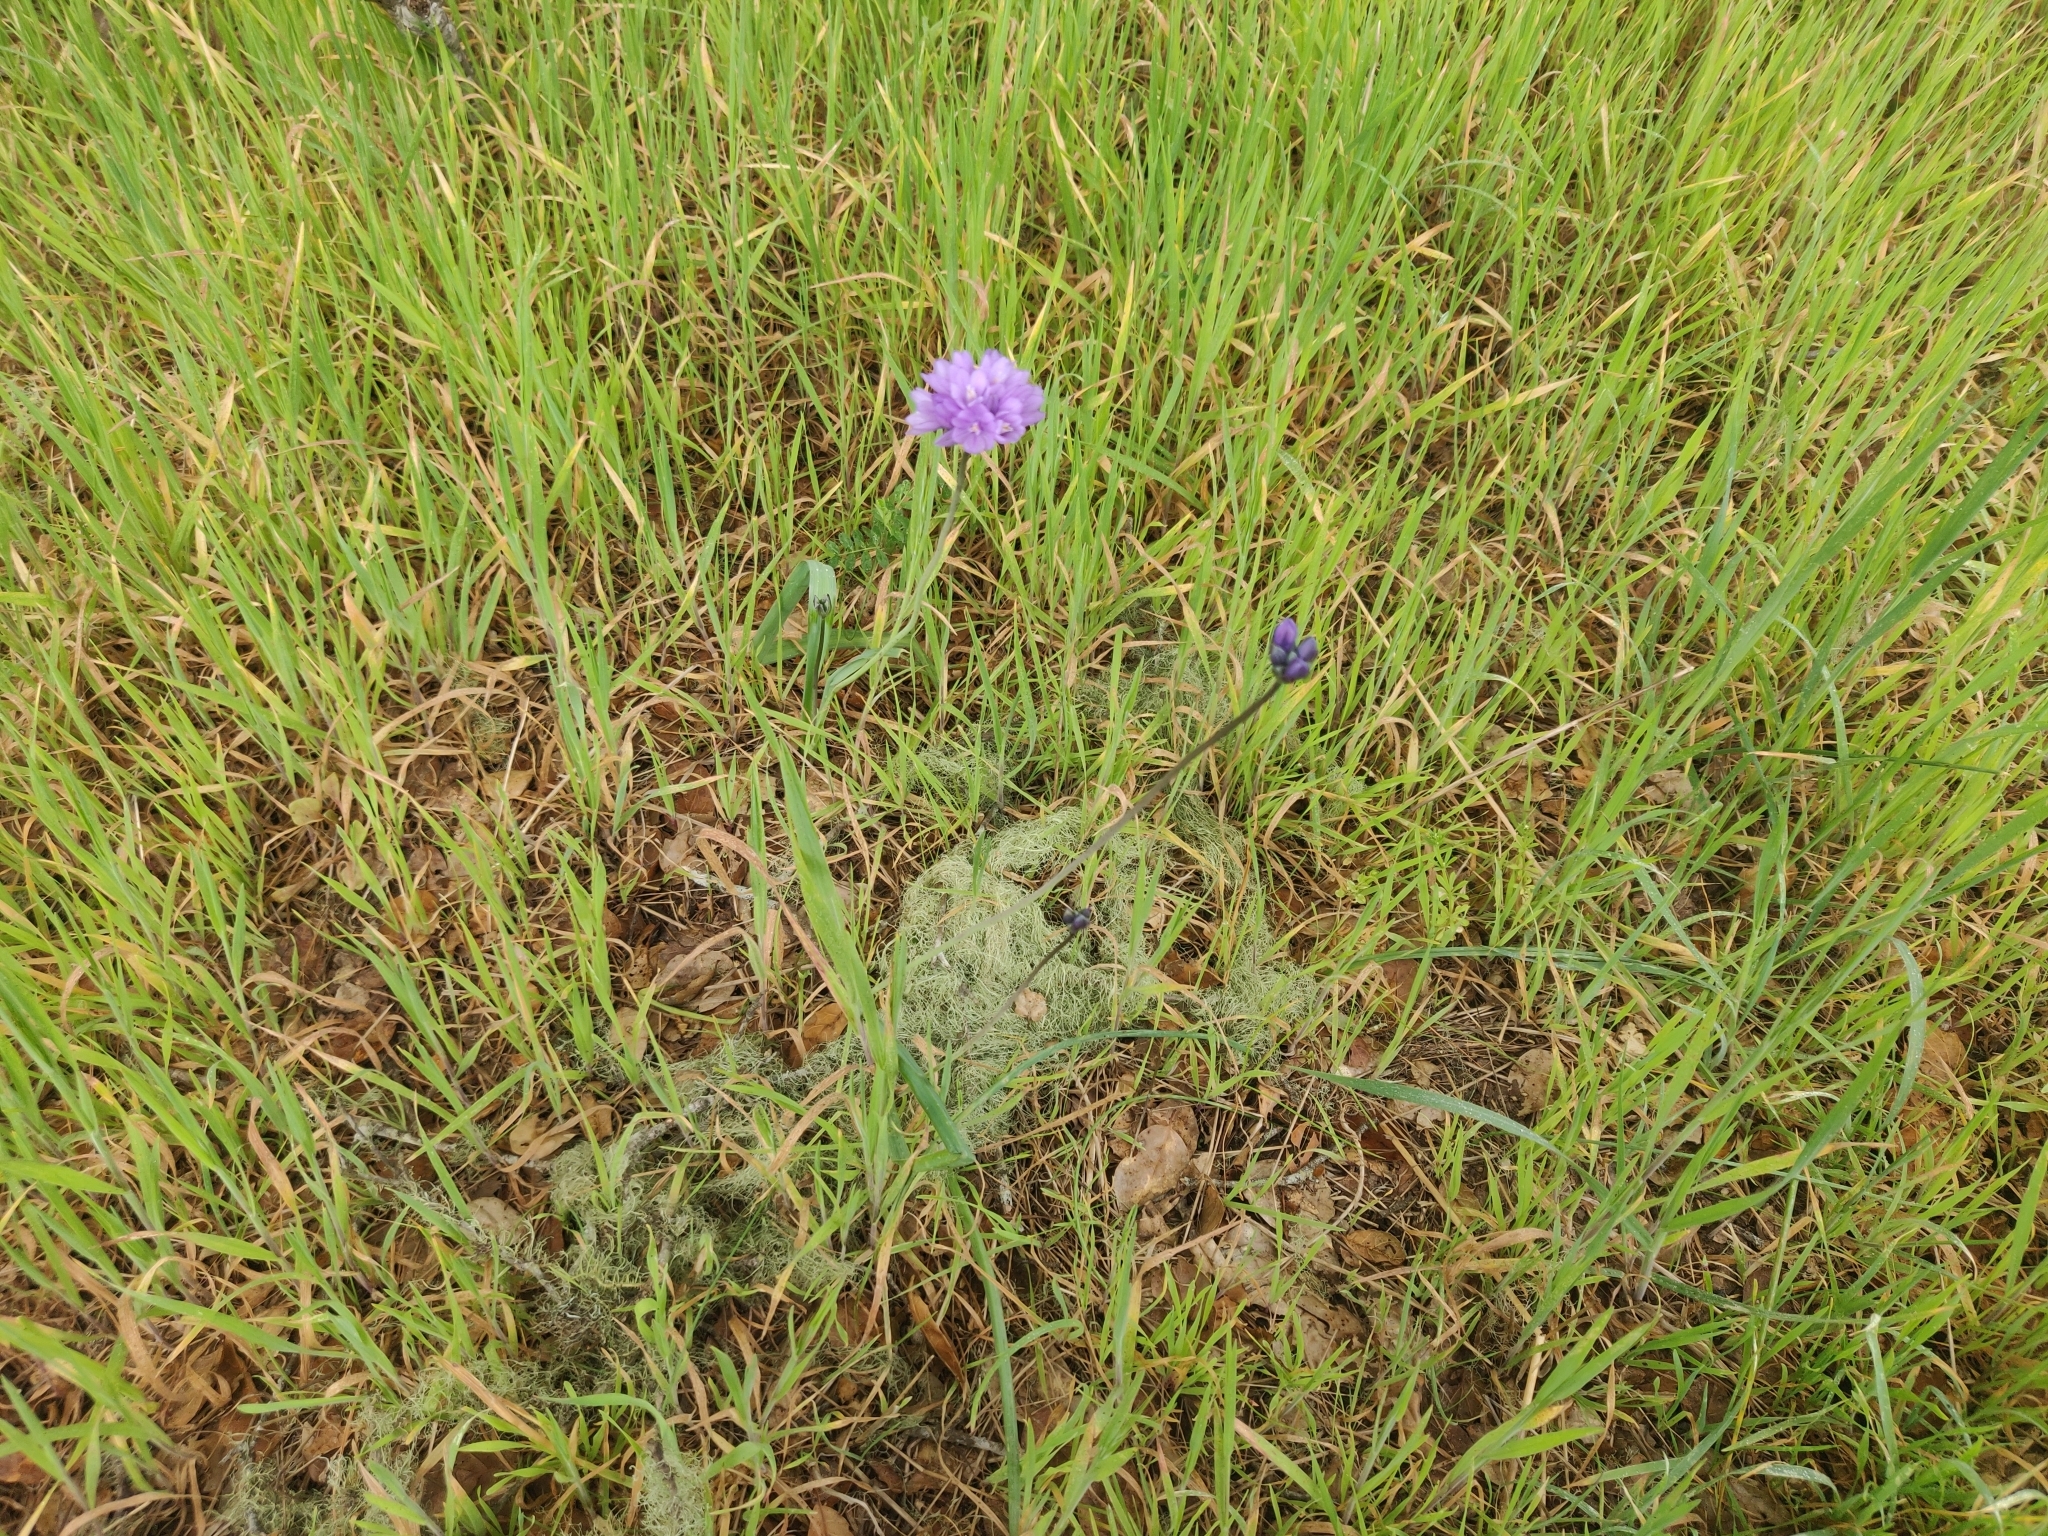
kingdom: Plantae
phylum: Tracheophyta
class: Liliopsida
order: Asparagales
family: Asparagaceae
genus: Dipterostemon
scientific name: Dipterostemon capitatus
